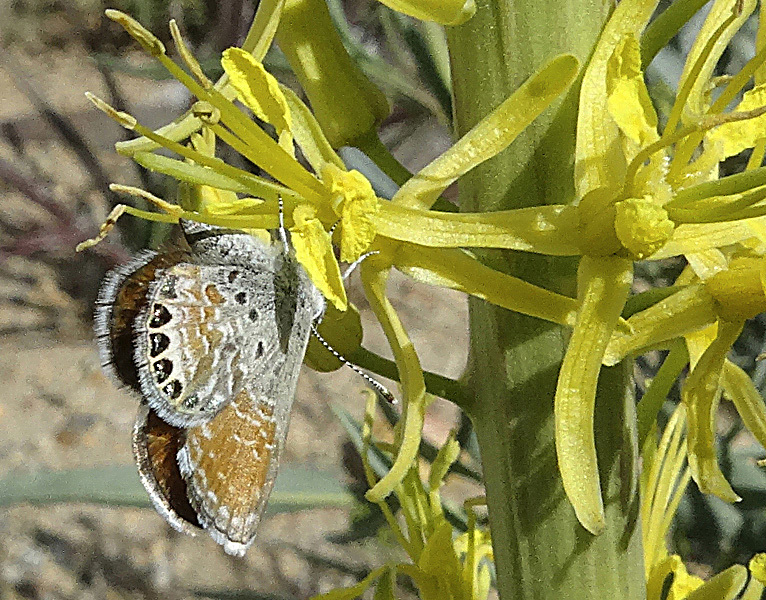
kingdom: Animalia
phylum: Arthropoda
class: Insecta
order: Lepidoptera
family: Lycaenidae
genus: Brephidium
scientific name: Brephidium exilis
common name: Pygmy blue
